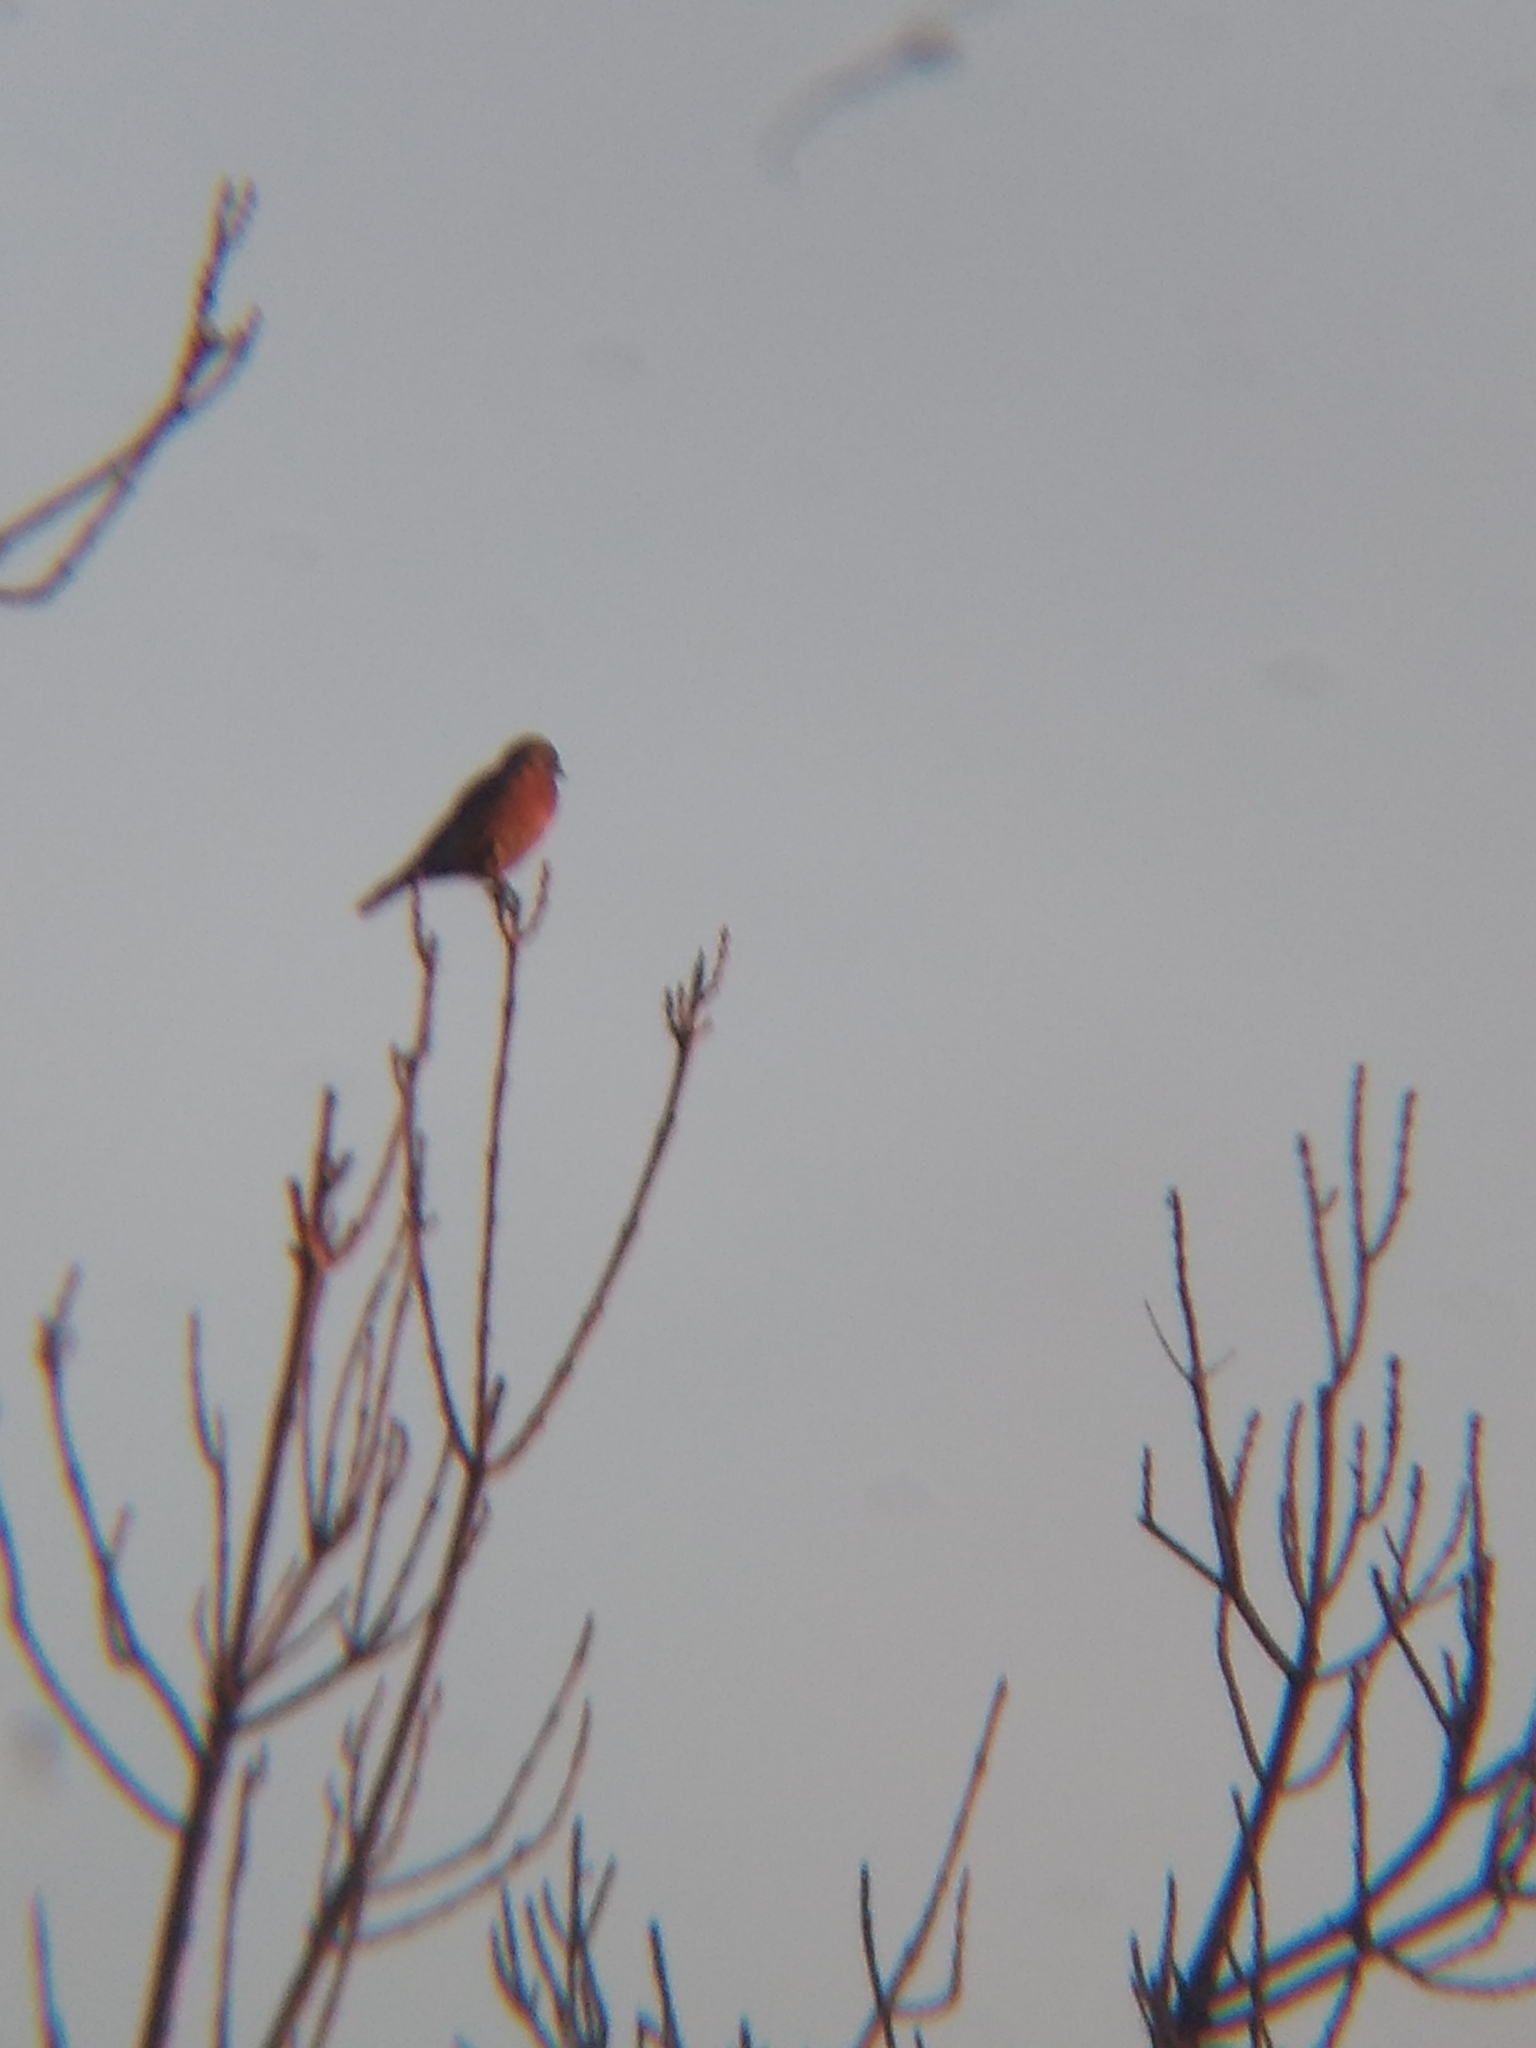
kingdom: Animalia
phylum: Chordata
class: Aves
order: Passeriformes
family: Turdidae
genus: Sialia
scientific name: Sialia mexicana
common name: Western bluebird
